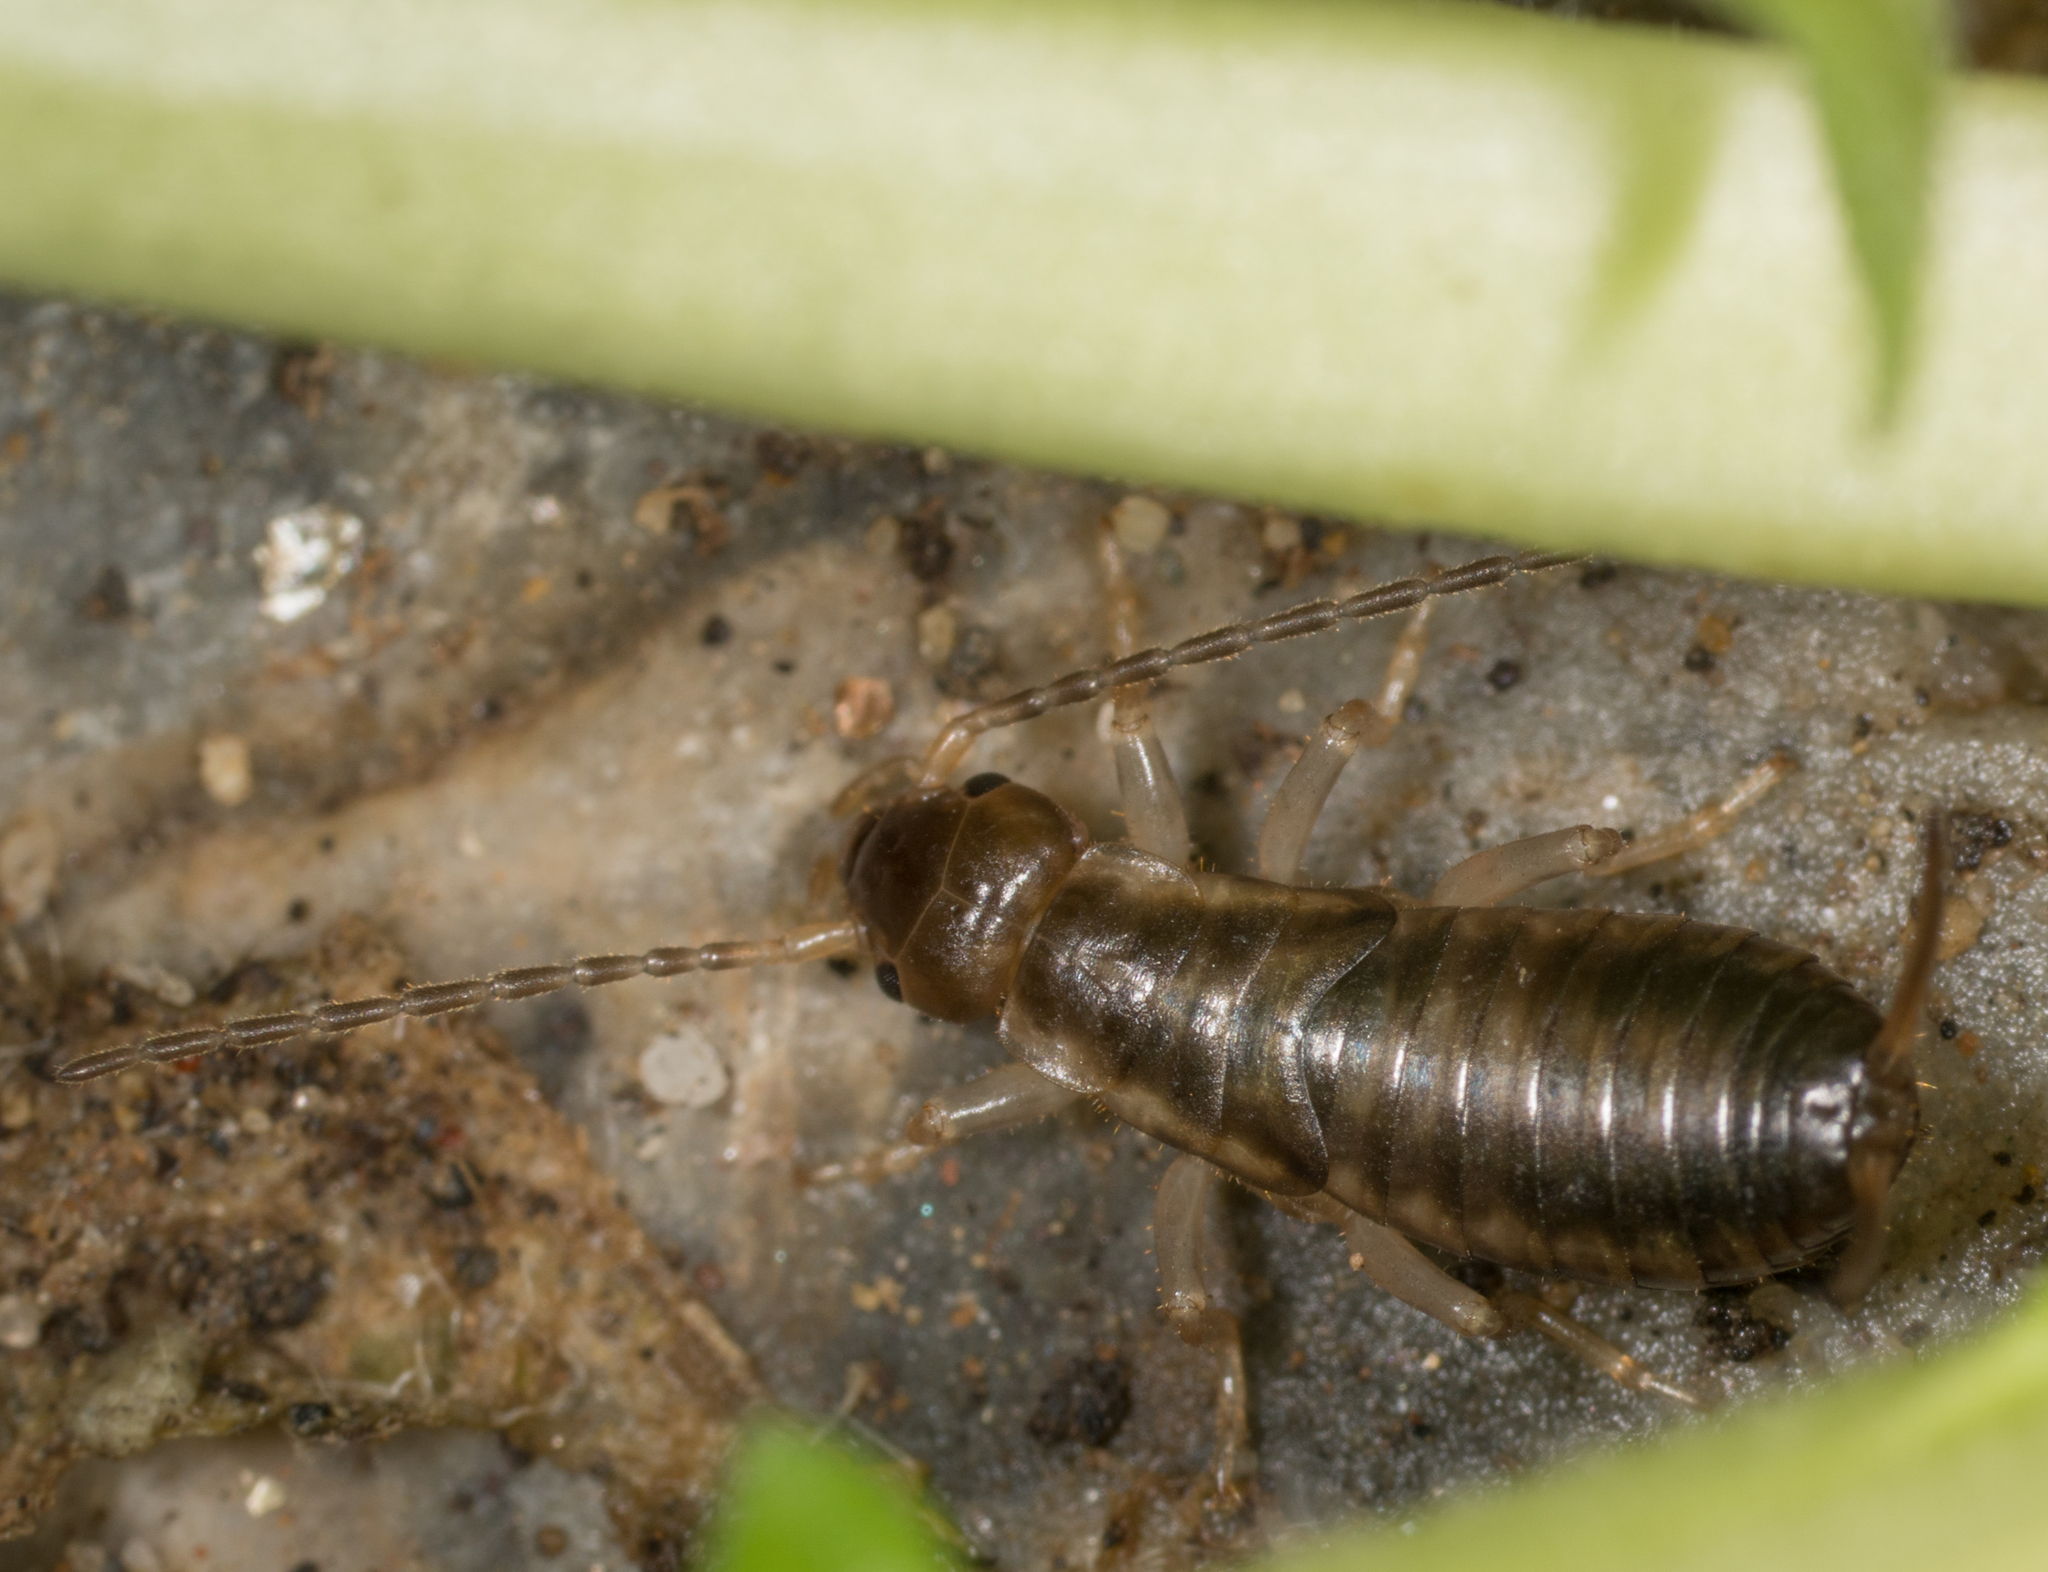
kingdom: Animalia
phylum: Arthropoda
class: Insecta
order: Dermaptera
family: Forficulidae
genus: Forficula
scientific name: Forficula
